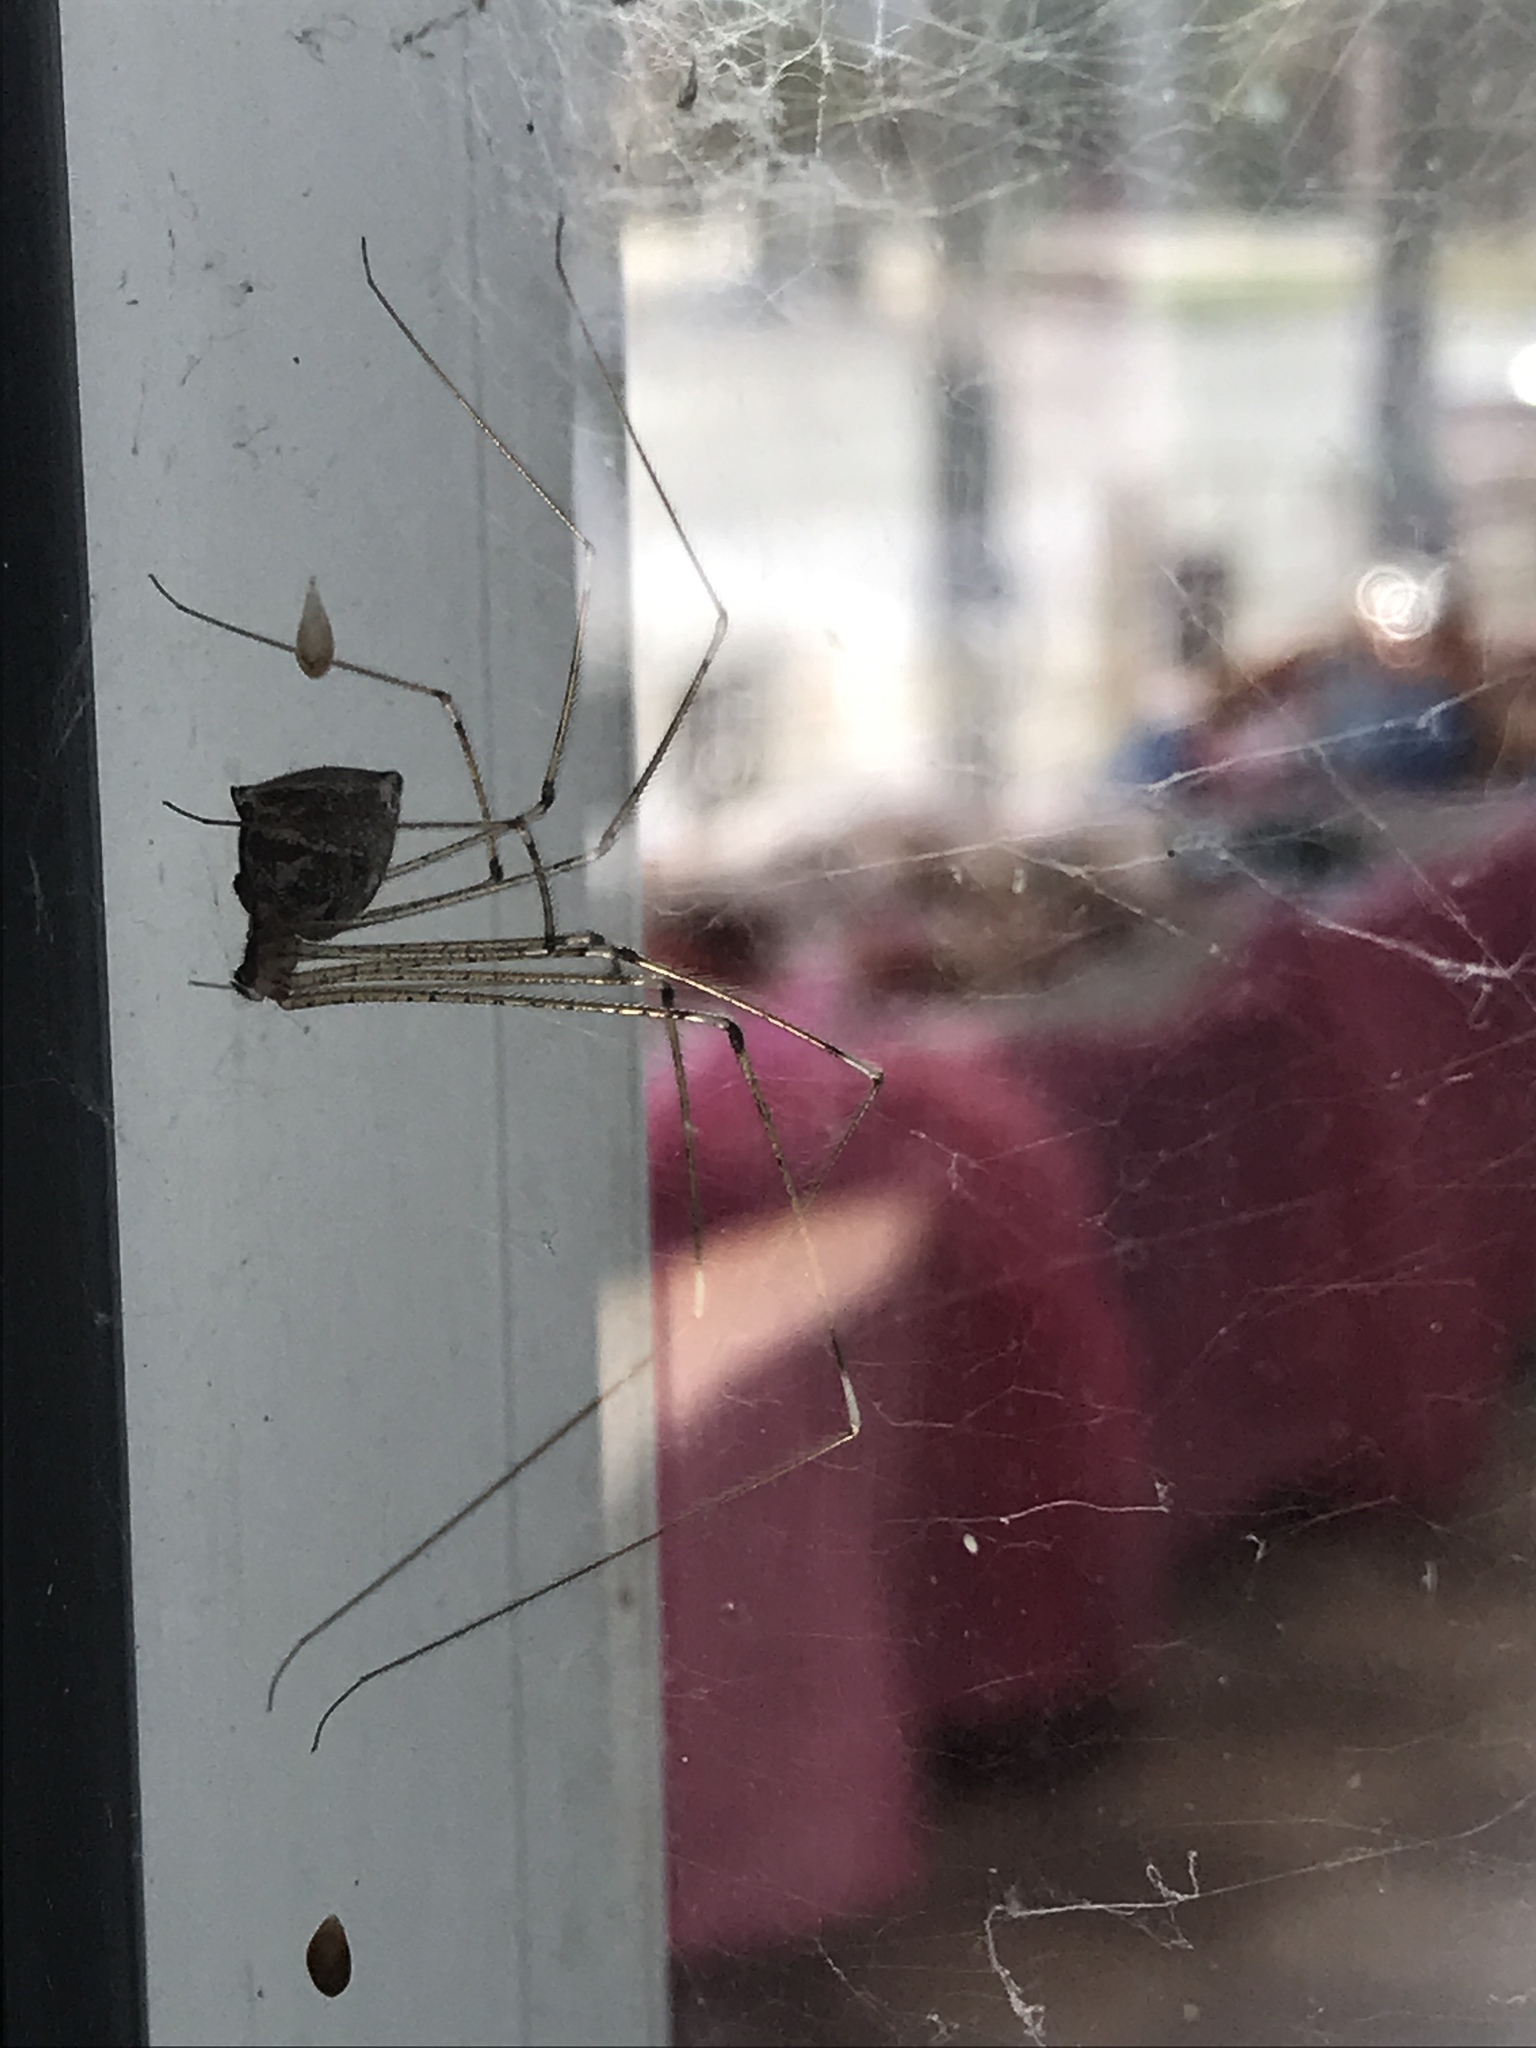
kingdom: Animalia
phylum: Arthropoda
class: Arachnida
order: Araneae
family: Pholcidae
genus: Crossopriza
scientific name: Crossopriza lyoni
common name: Cellar spiders
